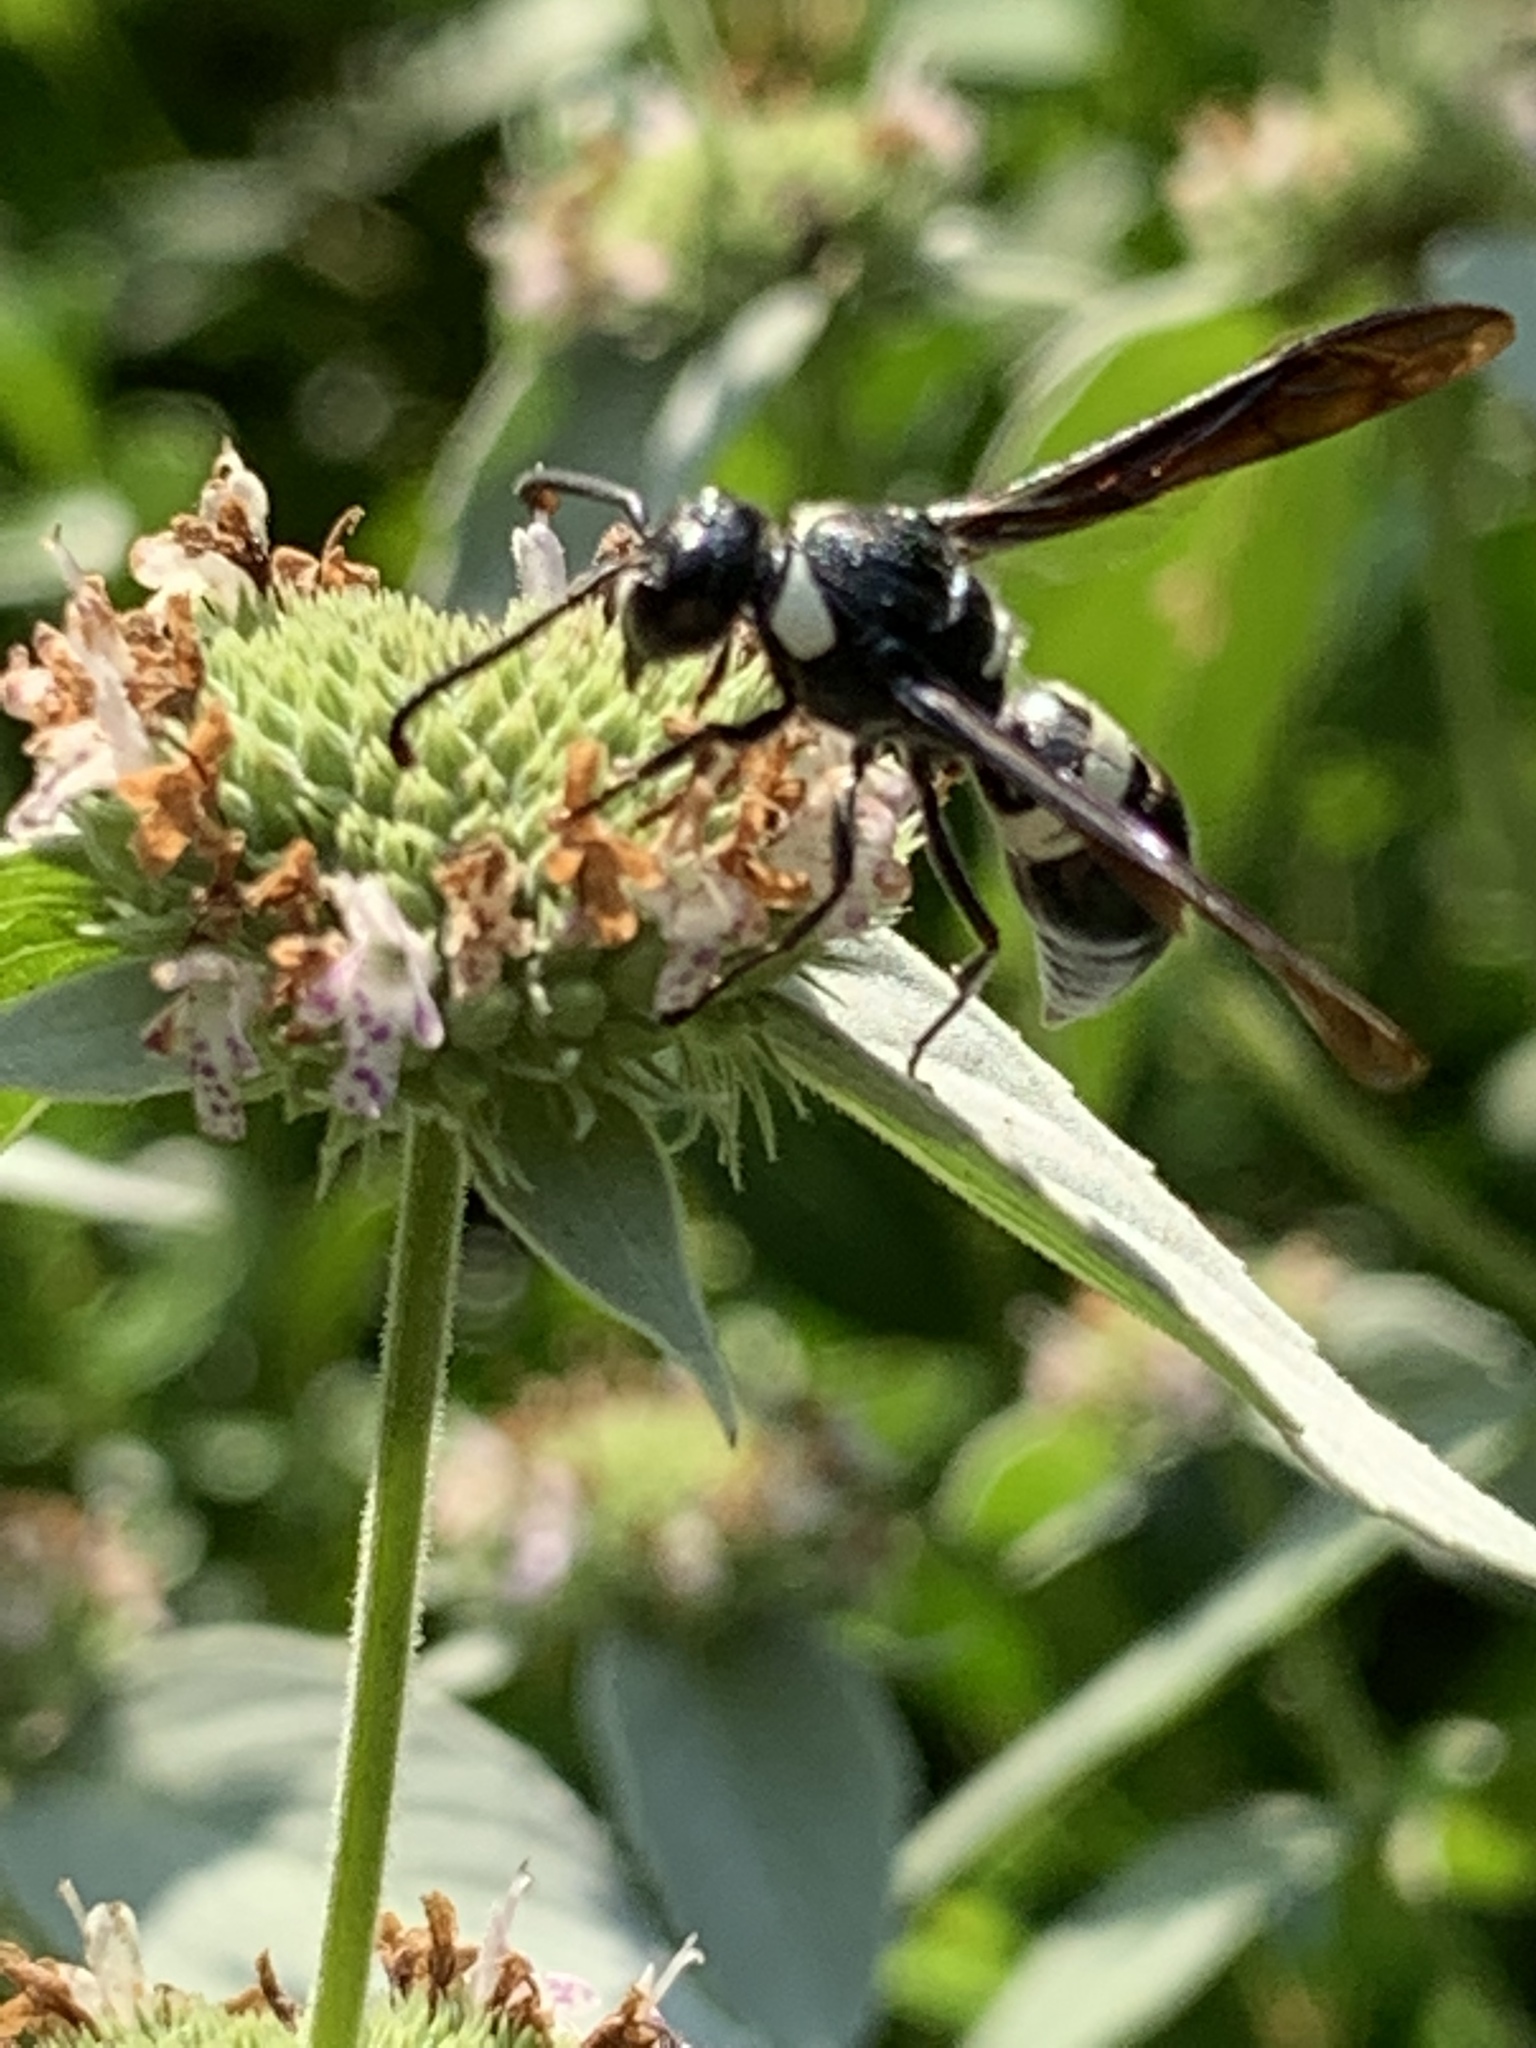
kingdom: Animalia
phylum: Arthropoda
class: Insecta
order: Hymenoptera
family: Eumenidae
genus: Monobia
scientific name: Monobia quadridens
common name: Four-toothed mason wasp
